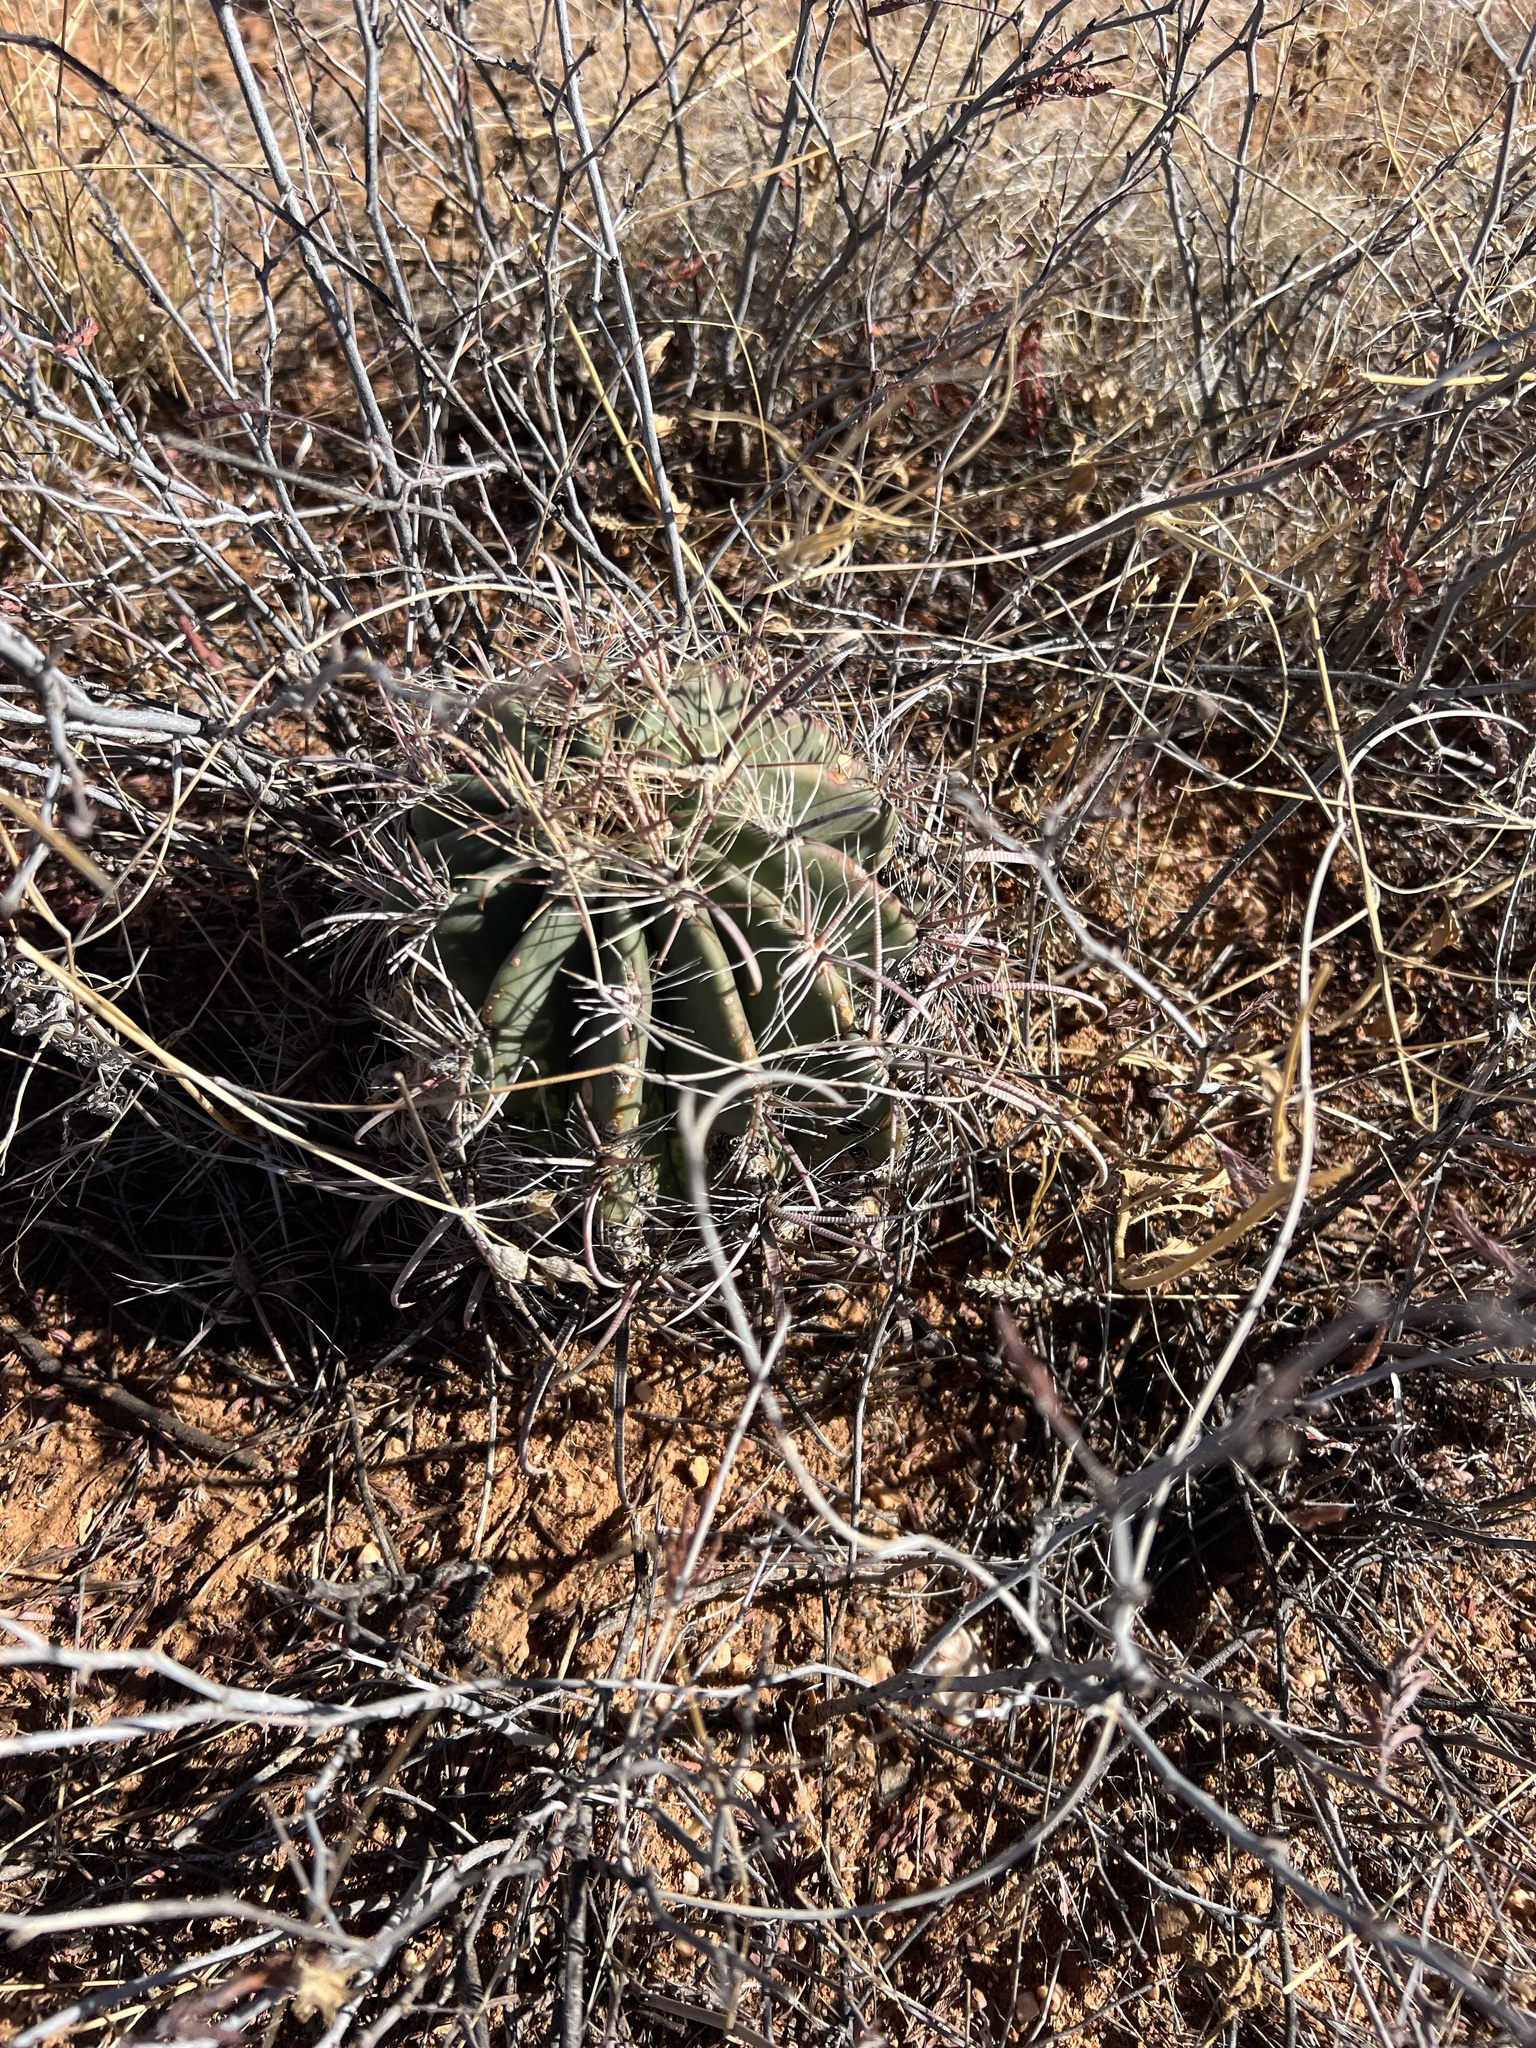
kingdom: Plantae
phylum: Tracheophyta
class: Magnoliopsida
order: Caryophyllales
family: Cactaceae
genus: Ferocactus
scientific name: Ferocactus wislizeni
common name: Candy barrel cactus
